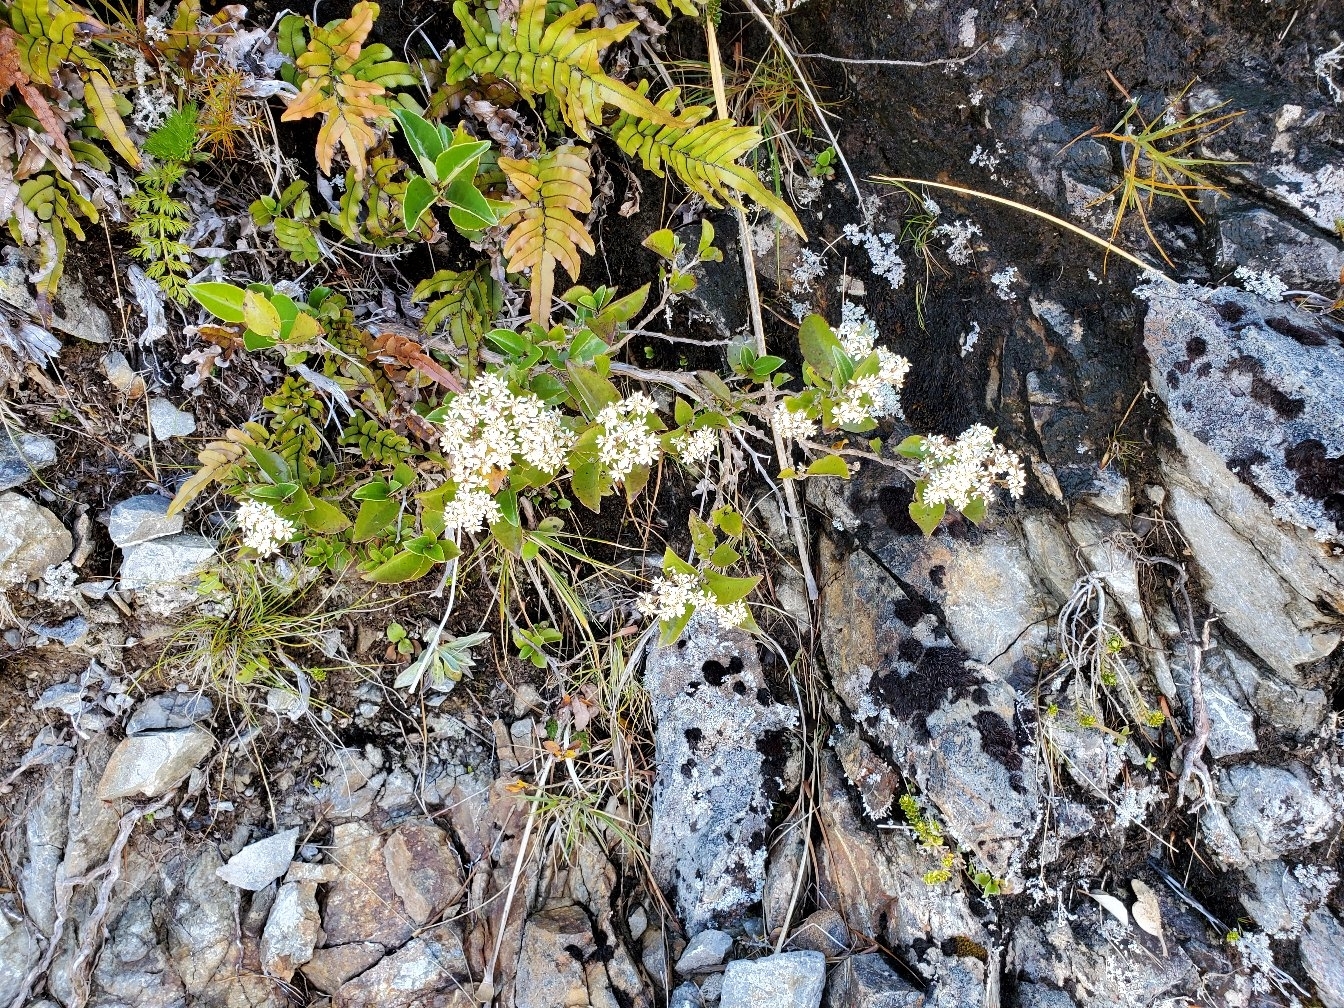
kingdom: Plantae
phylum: Tracheophyta
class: Magnoliopsida
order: Asterales
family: Asteraceae
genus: Olearia
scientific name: Olearia avicenniifolia
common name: Mangrove-leaf daisybush
